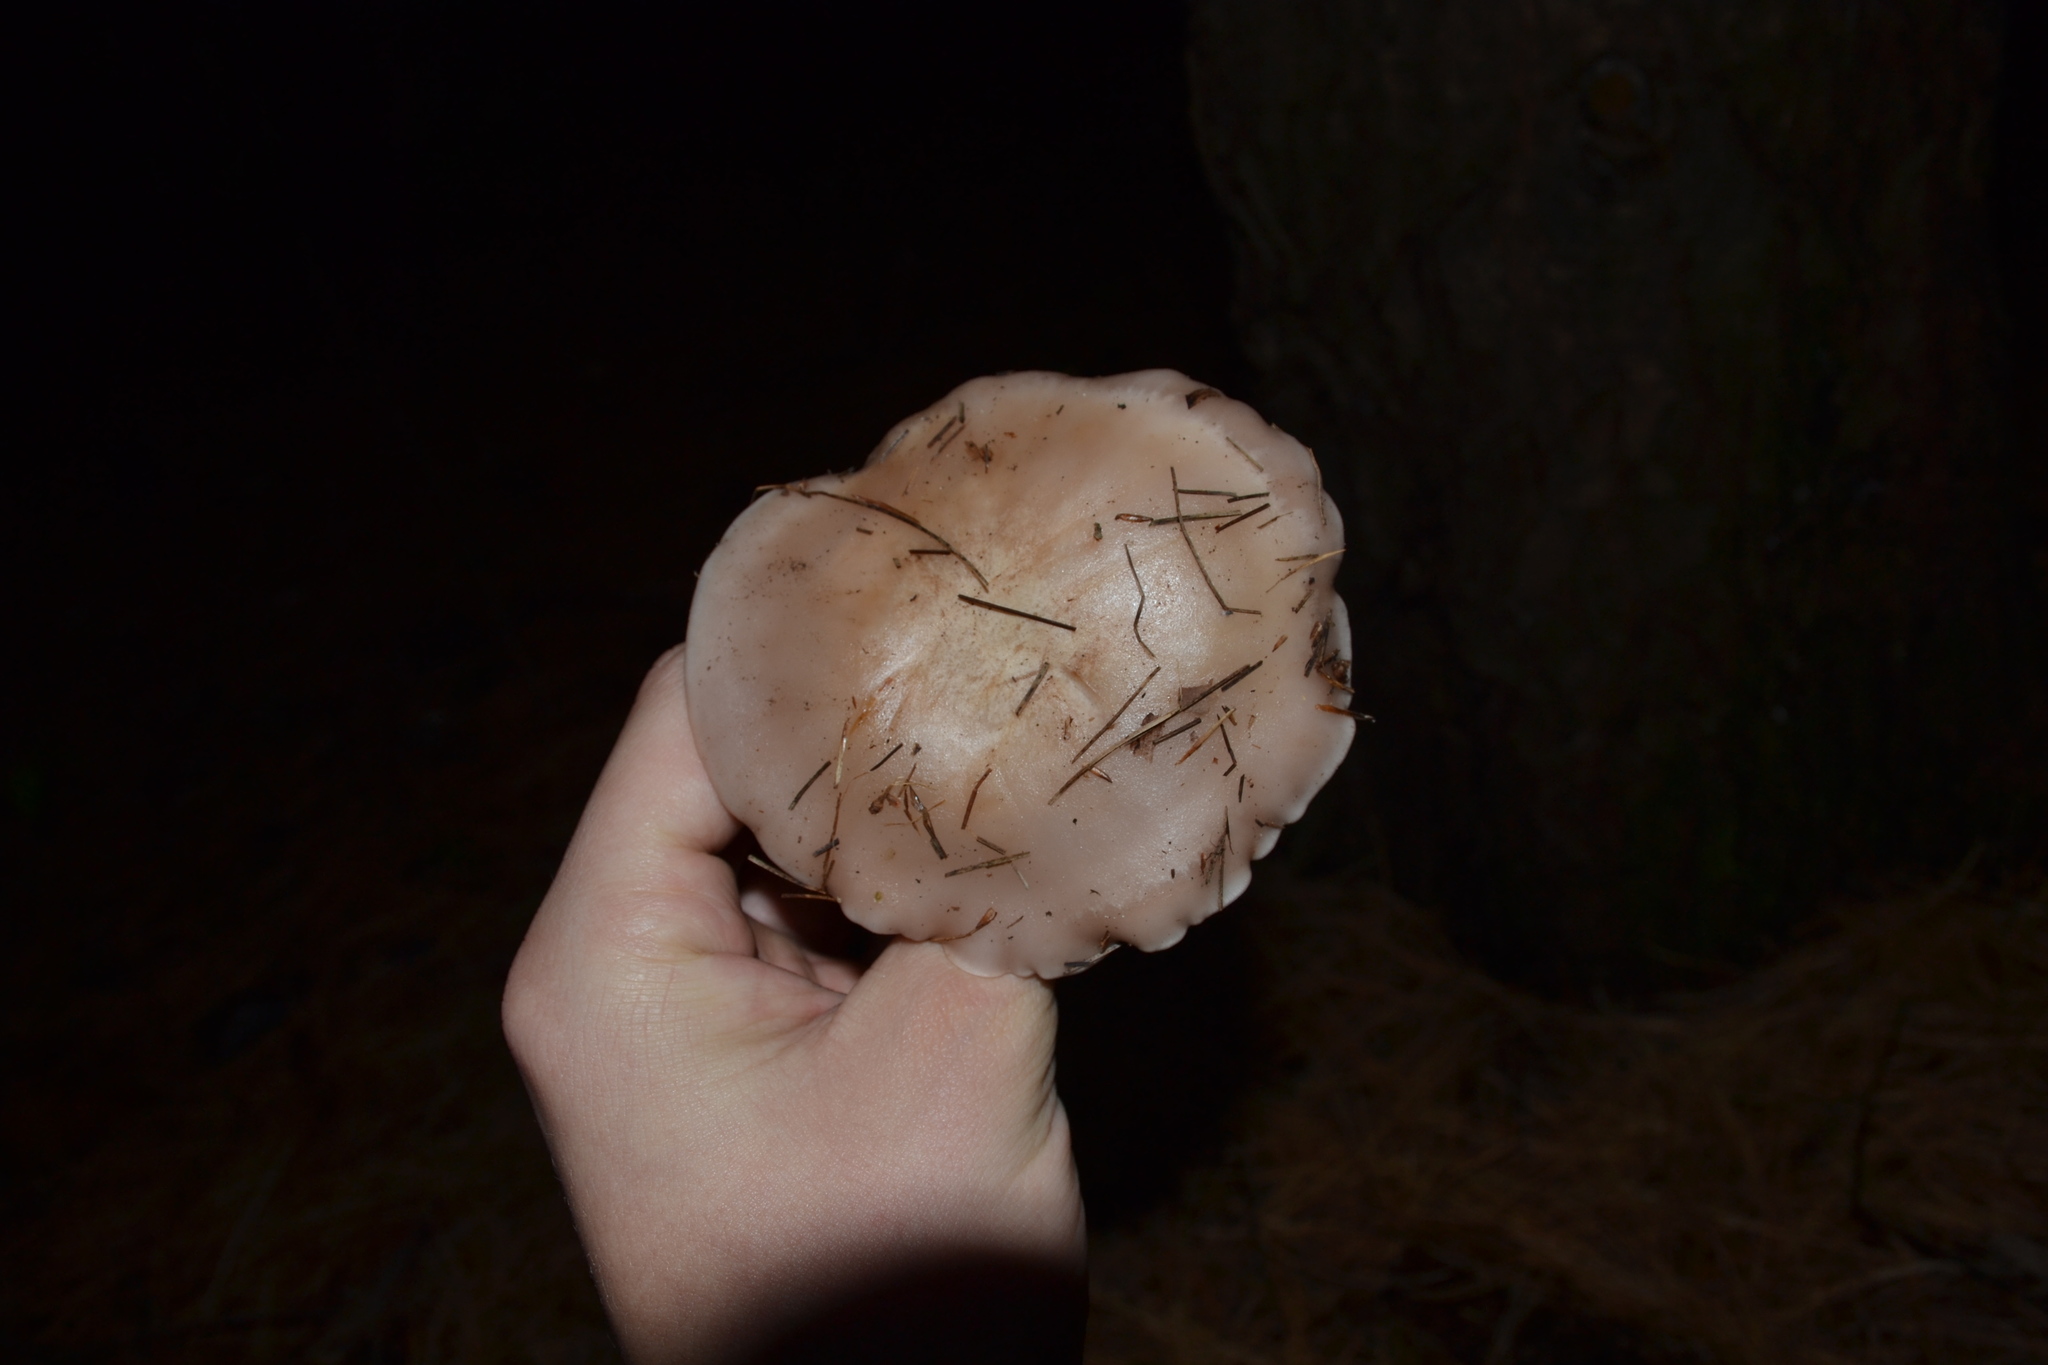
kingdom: Fungi
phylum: Basidiomycota
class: Agaricomycetes
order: Agaricales
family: Tricholomataceae
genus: Collybia
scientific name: Collybia
